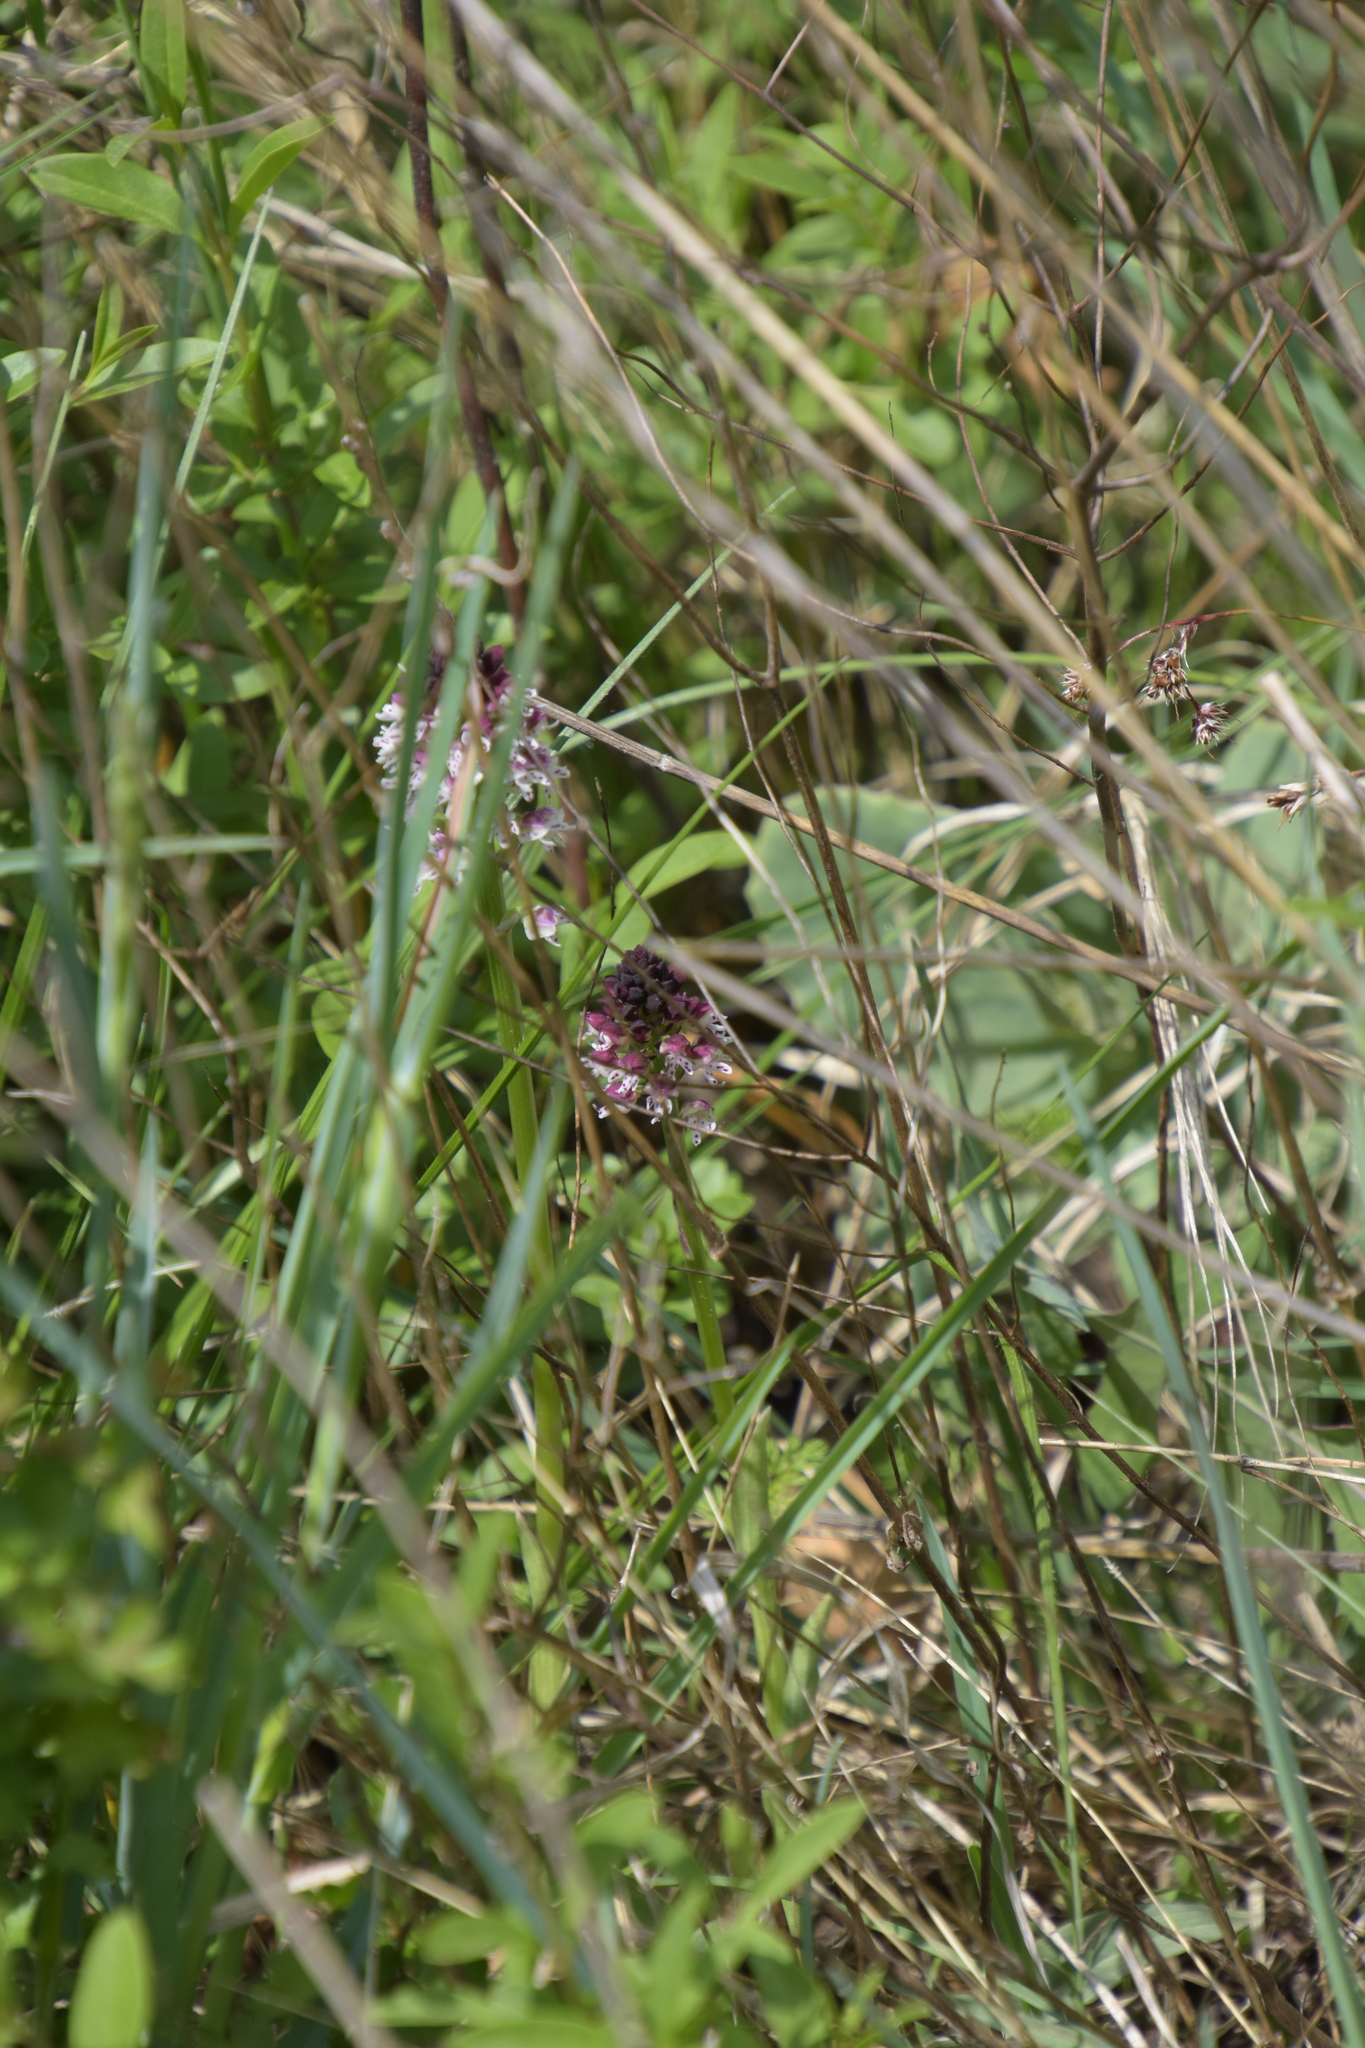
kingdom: Plantae
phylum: Tracheophyta
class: Liliopsida
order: Asparagales
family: Orchidaceae
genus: Neotinea
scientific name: Neotinea ustulata
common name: Burnt orchid
